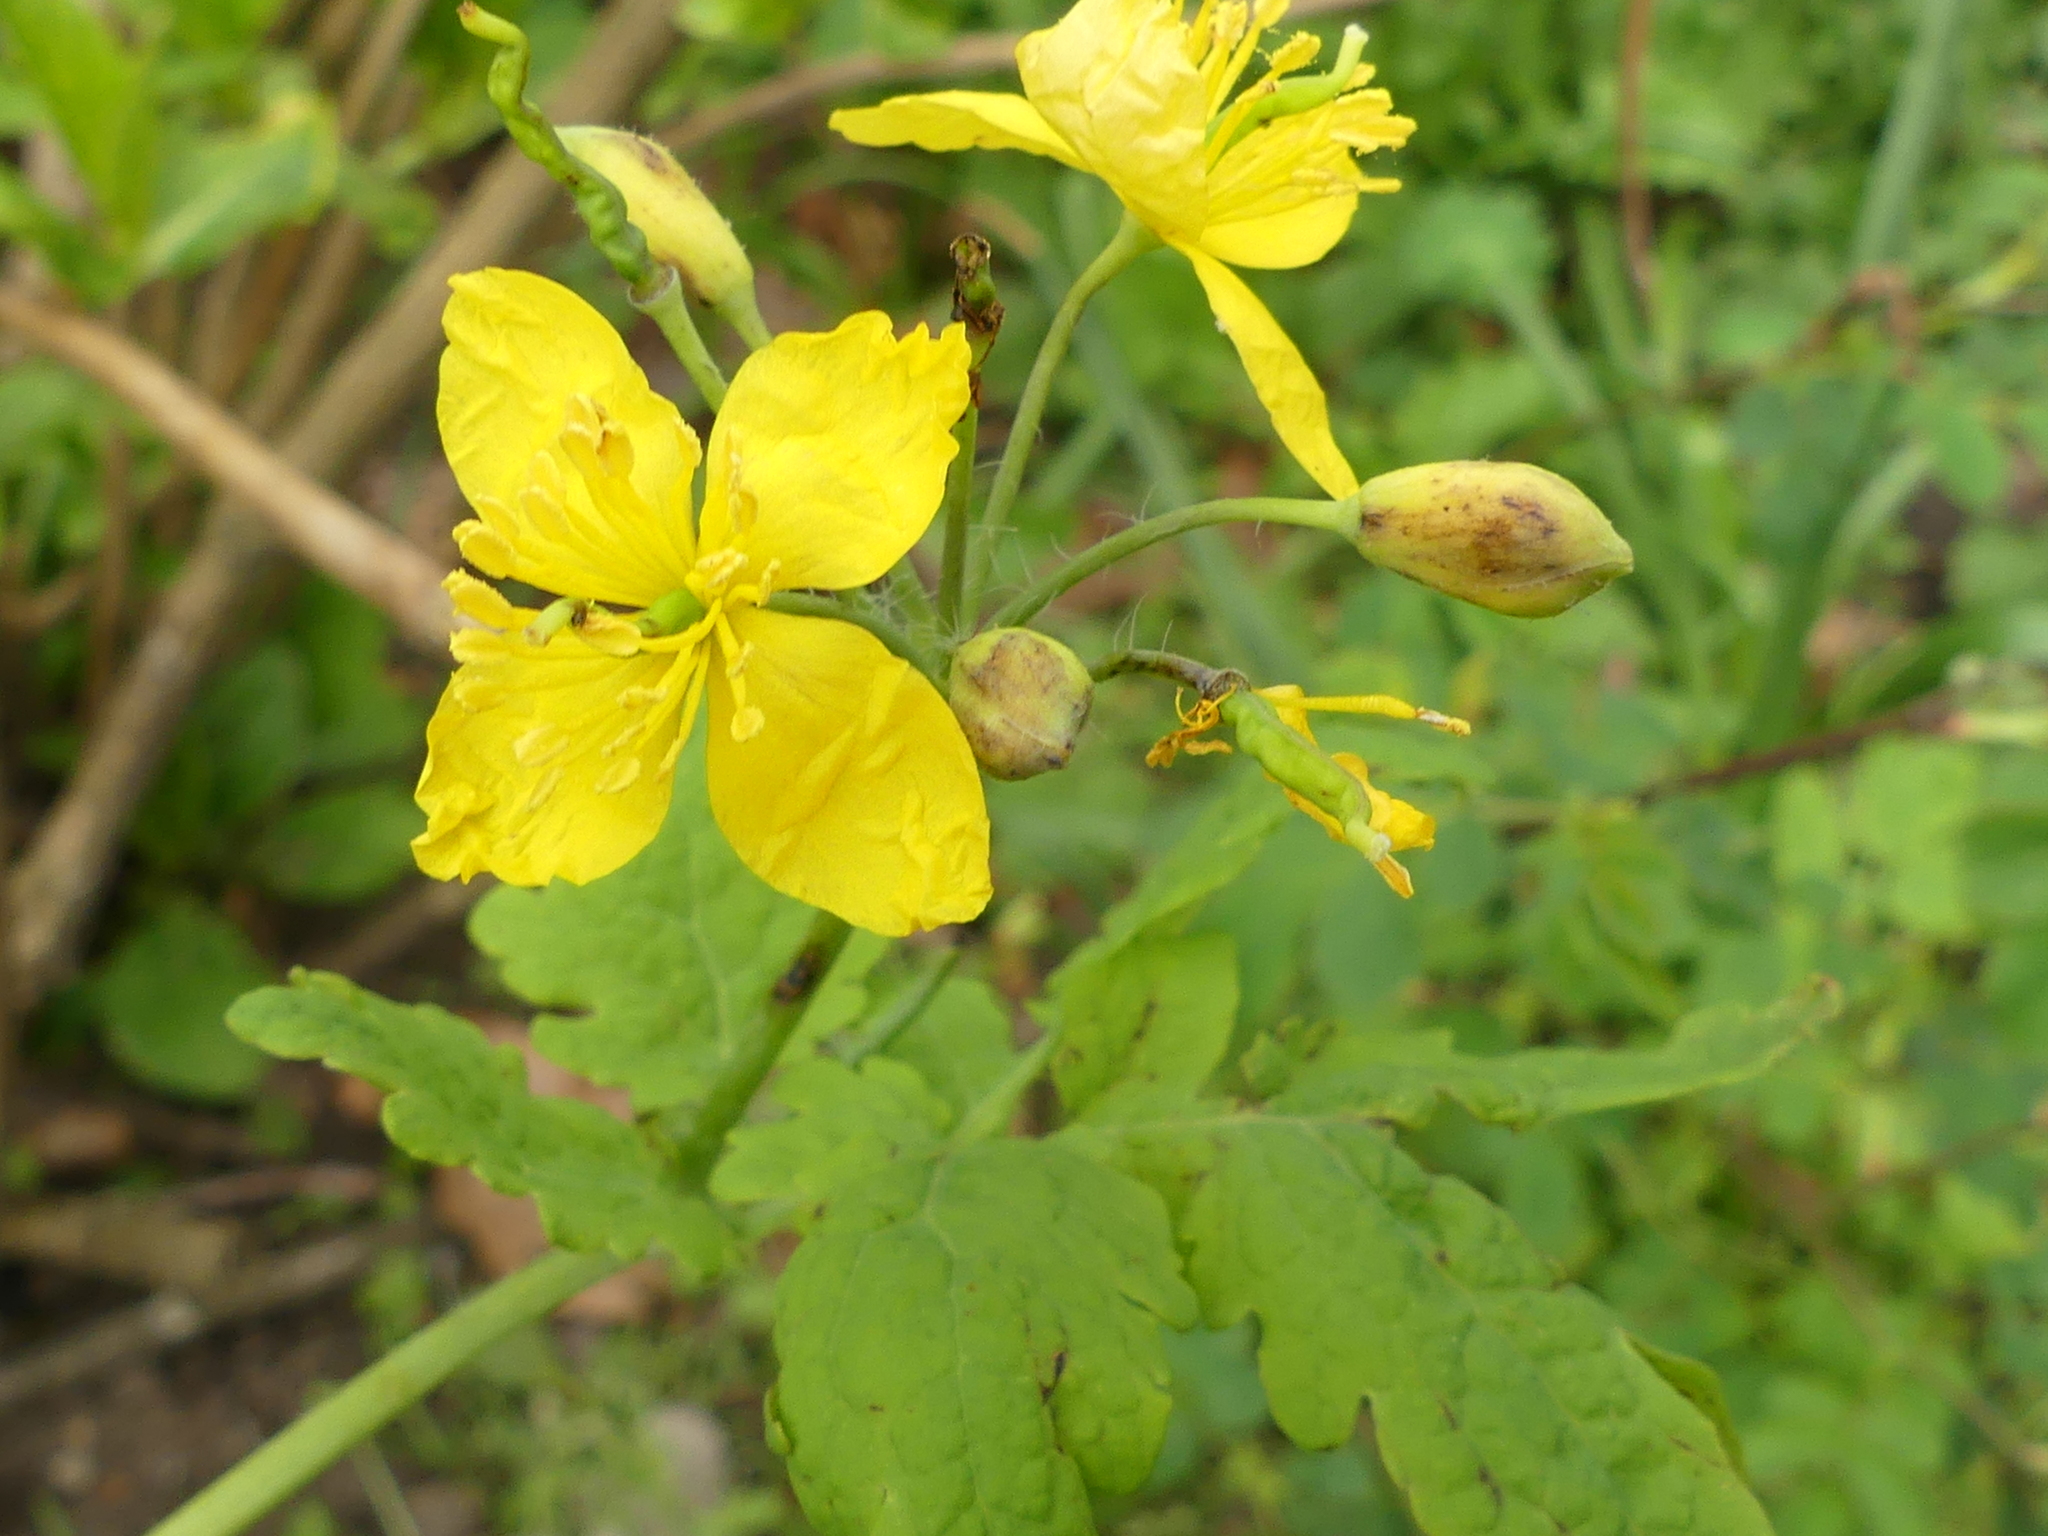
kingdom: Plantae
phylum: Tracheophyta
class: Magnoliopsida
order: Ranunculales
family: Papaveraceae
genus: Chelidonium
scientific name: Chelidonium majus
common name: Greater celandine
